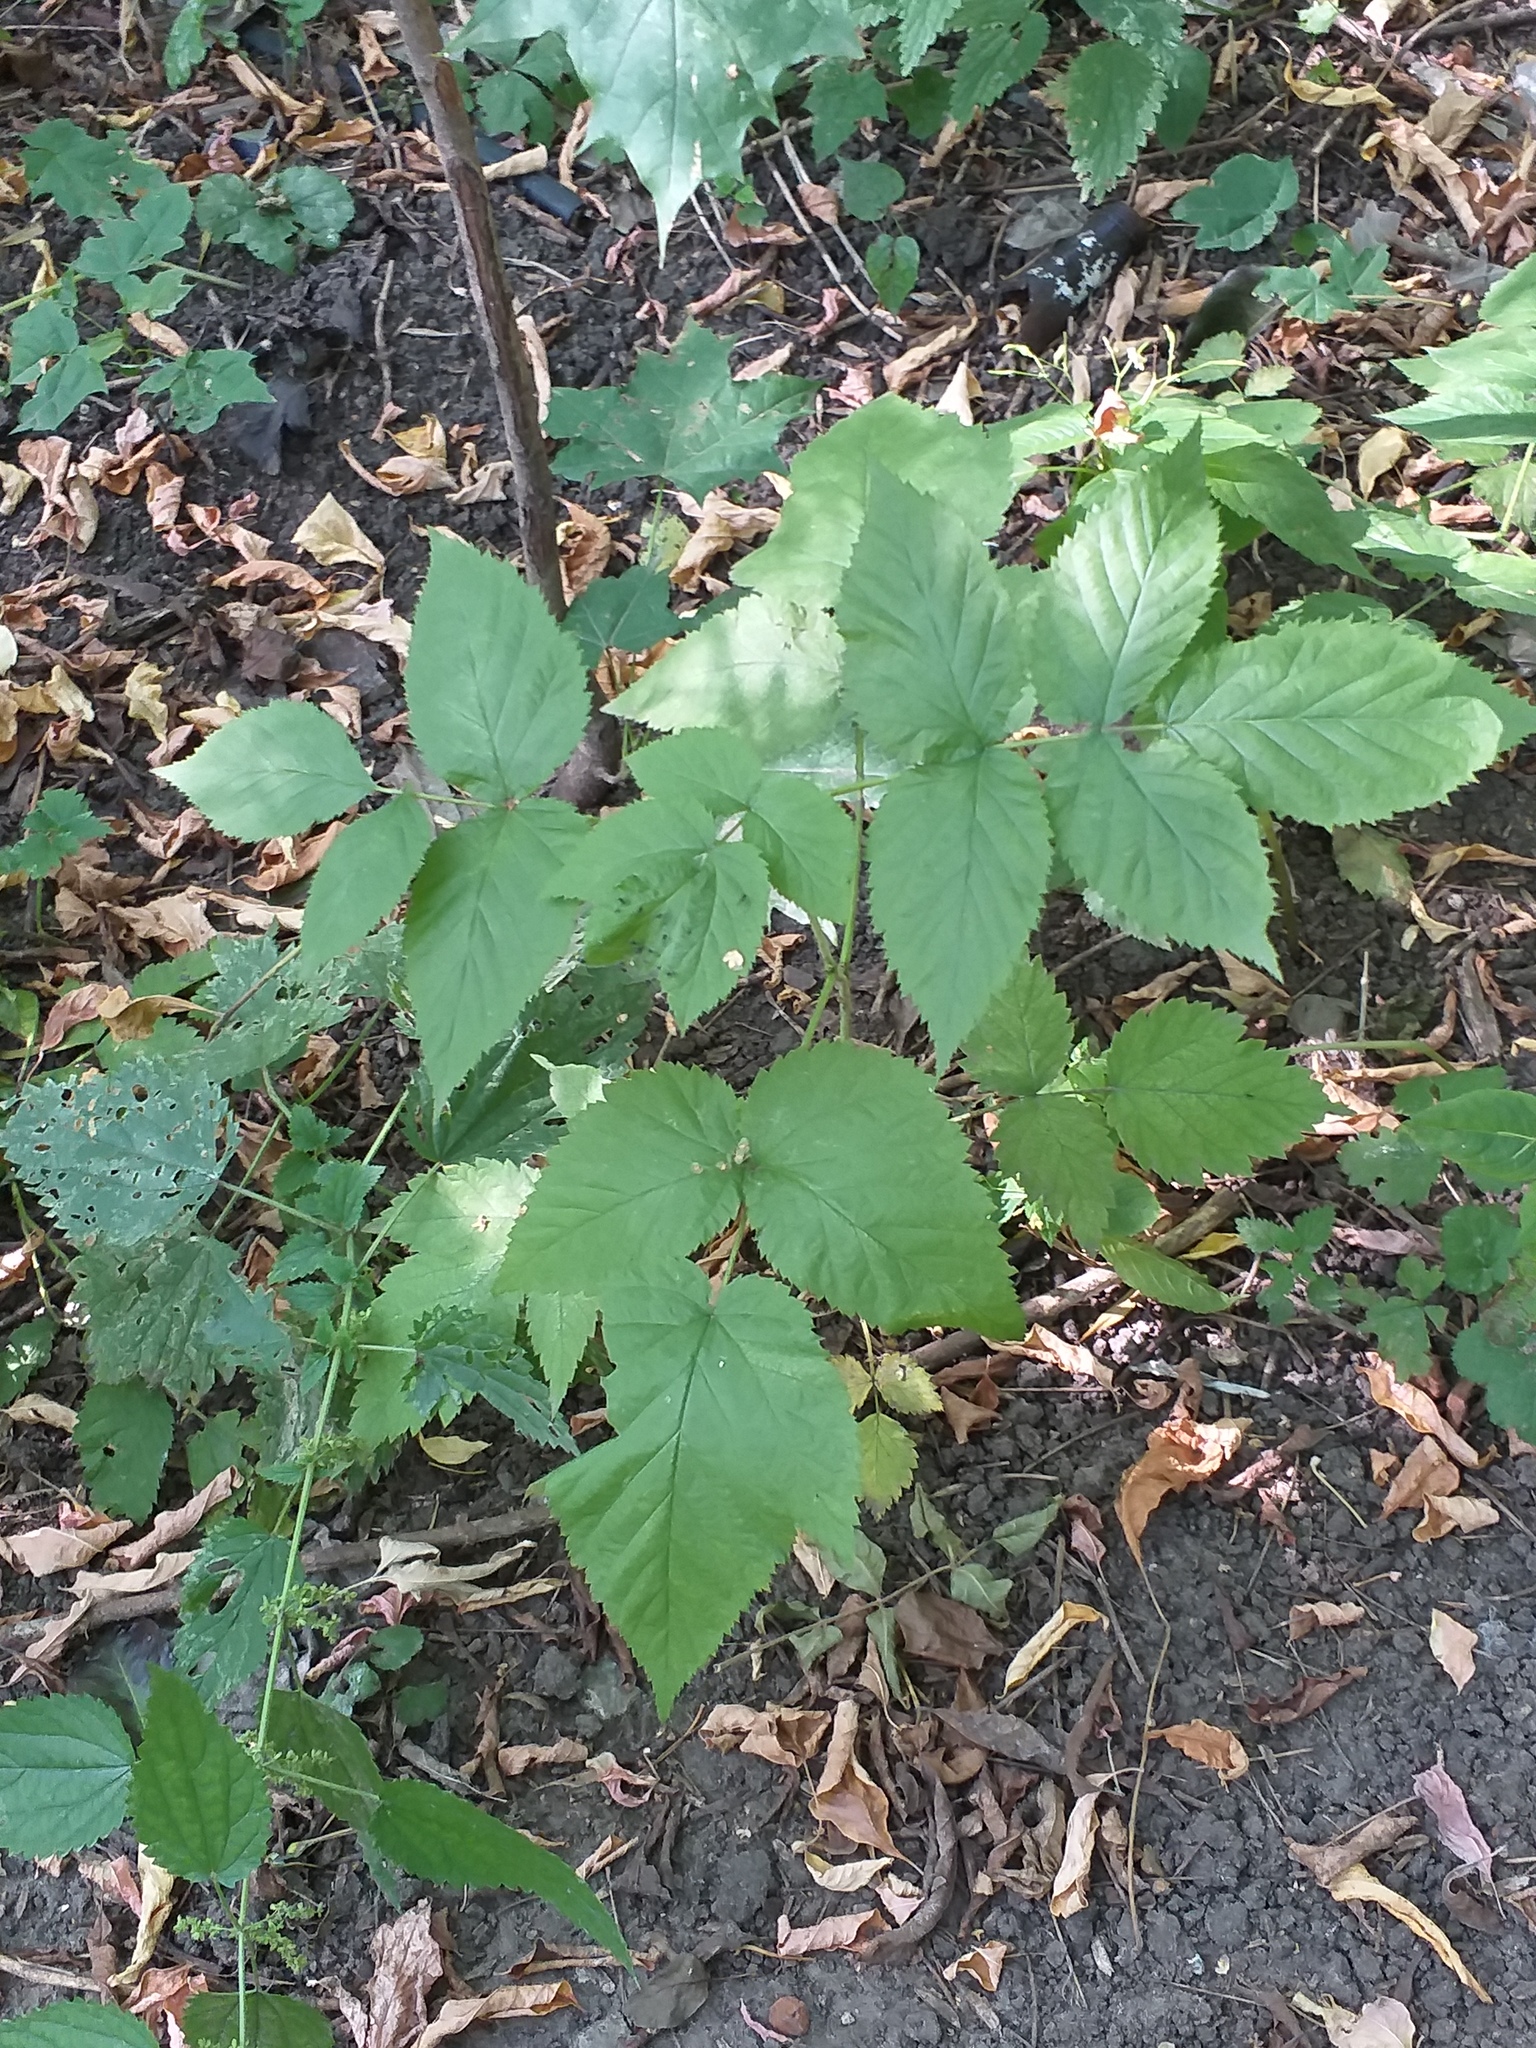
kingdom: Plantae
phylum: Tracheophyta
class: Magnoliopsida
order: Rosales
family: Rosaceae
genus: Rubus
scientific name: Rubus idaeus
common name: Raspberry
